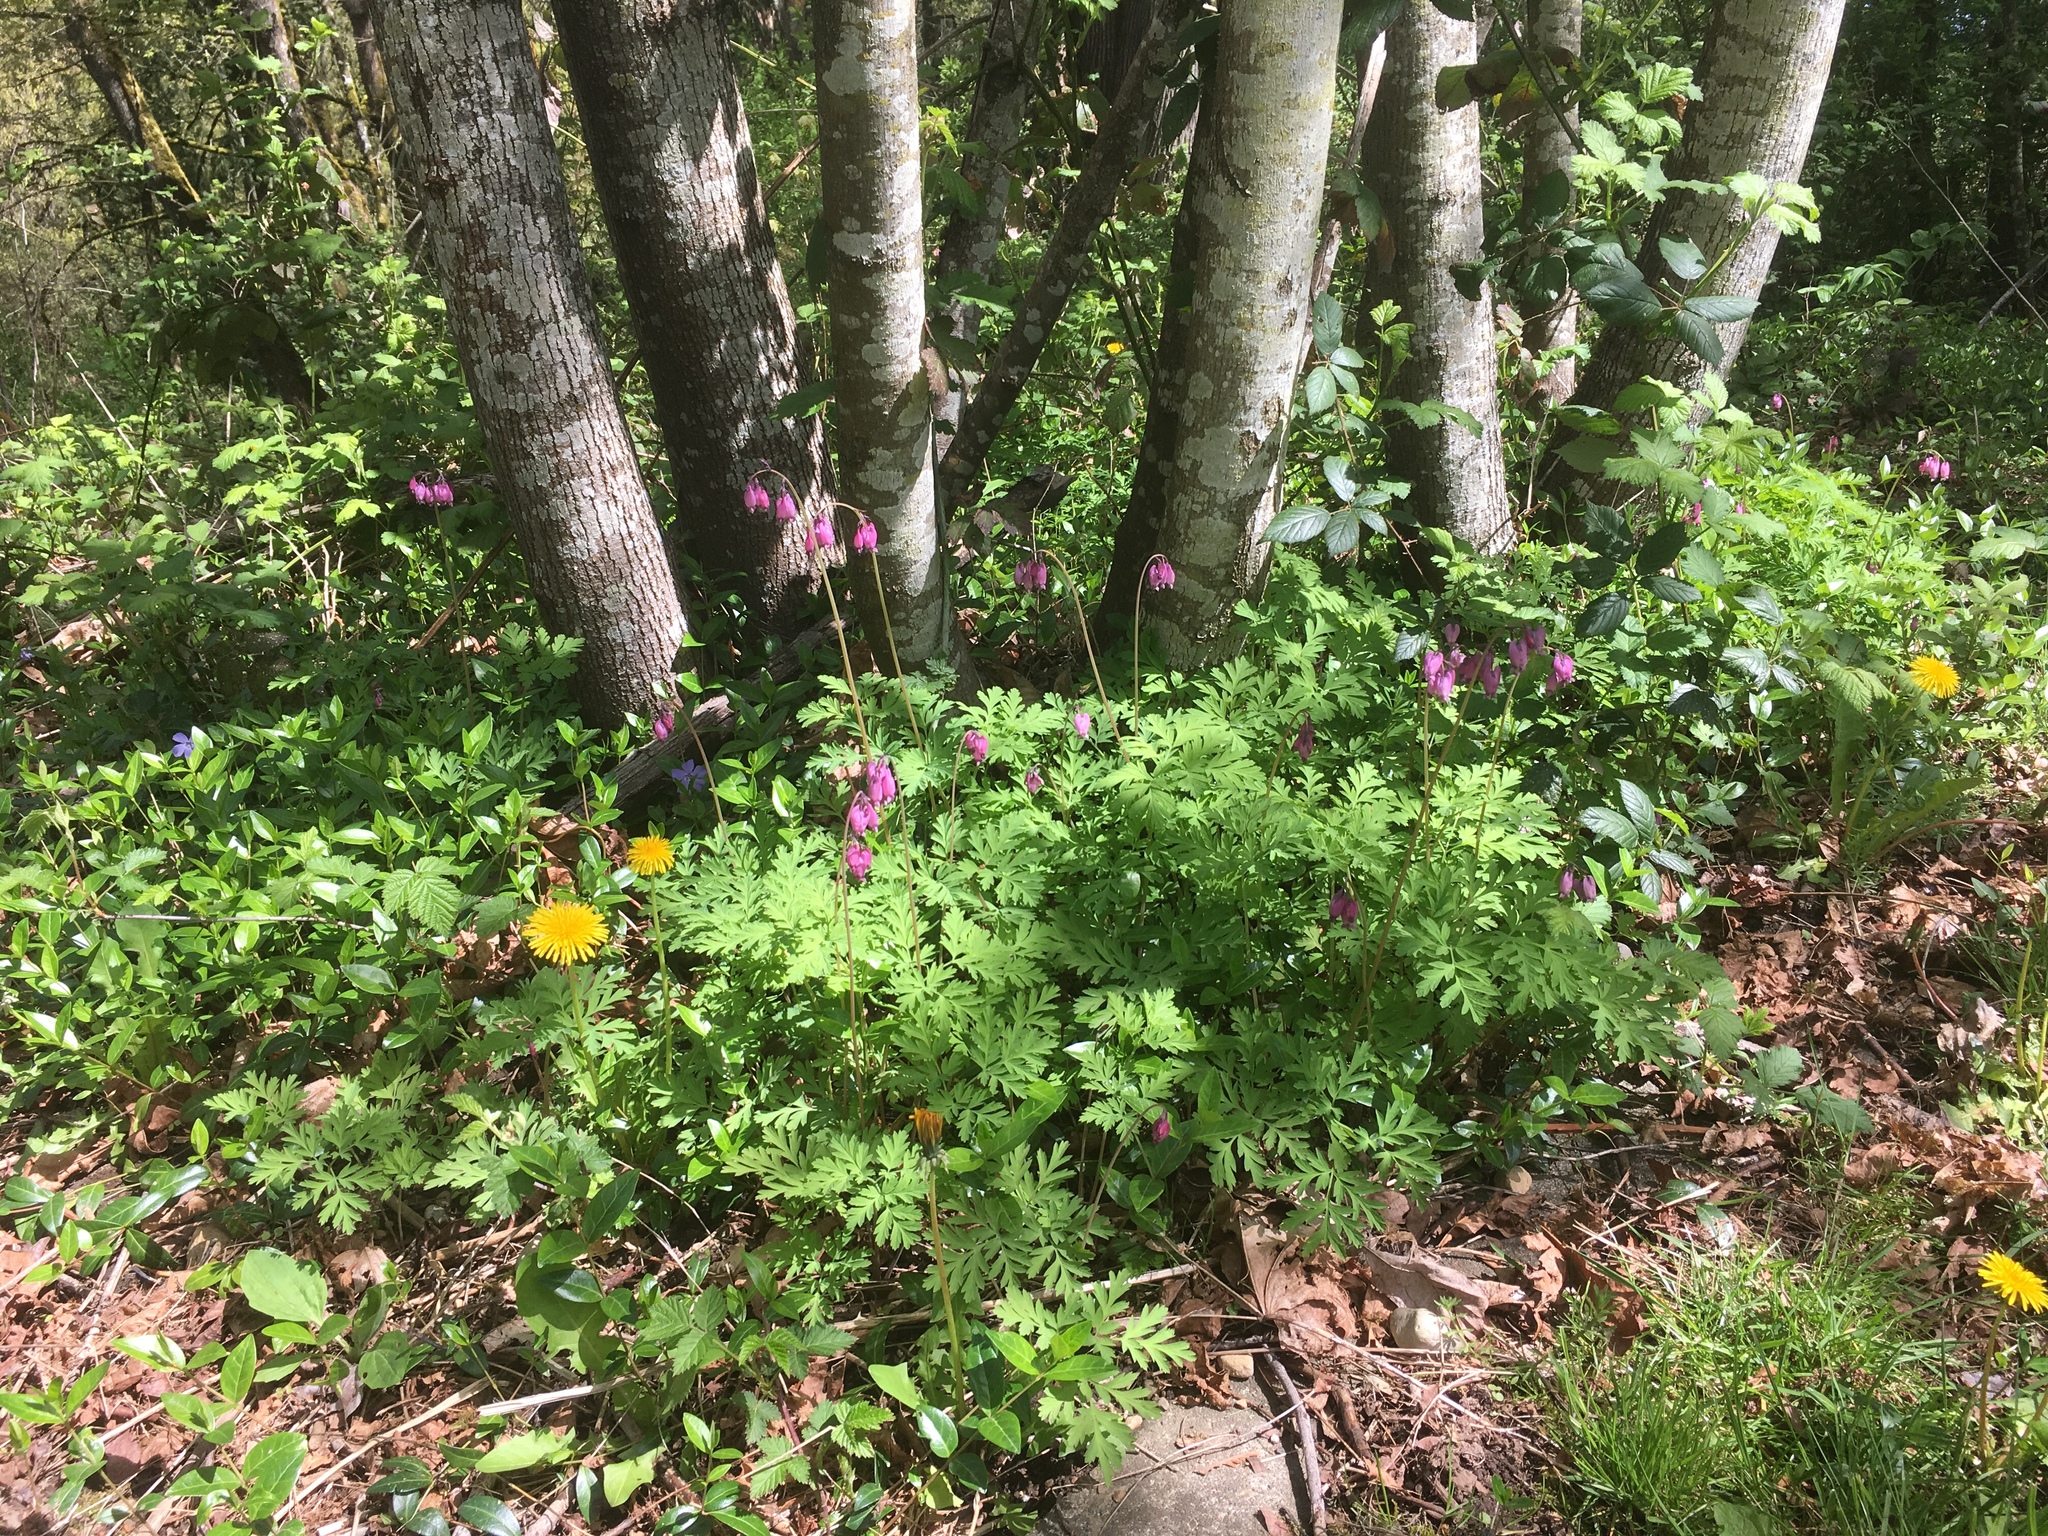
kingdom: Plantae
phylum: Tracheophyta
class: Magnoliopsida
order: Ranunculales
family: Papaveraceae
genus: Dicentra
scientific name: Dicentra formosa
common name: Bleeding-heart
